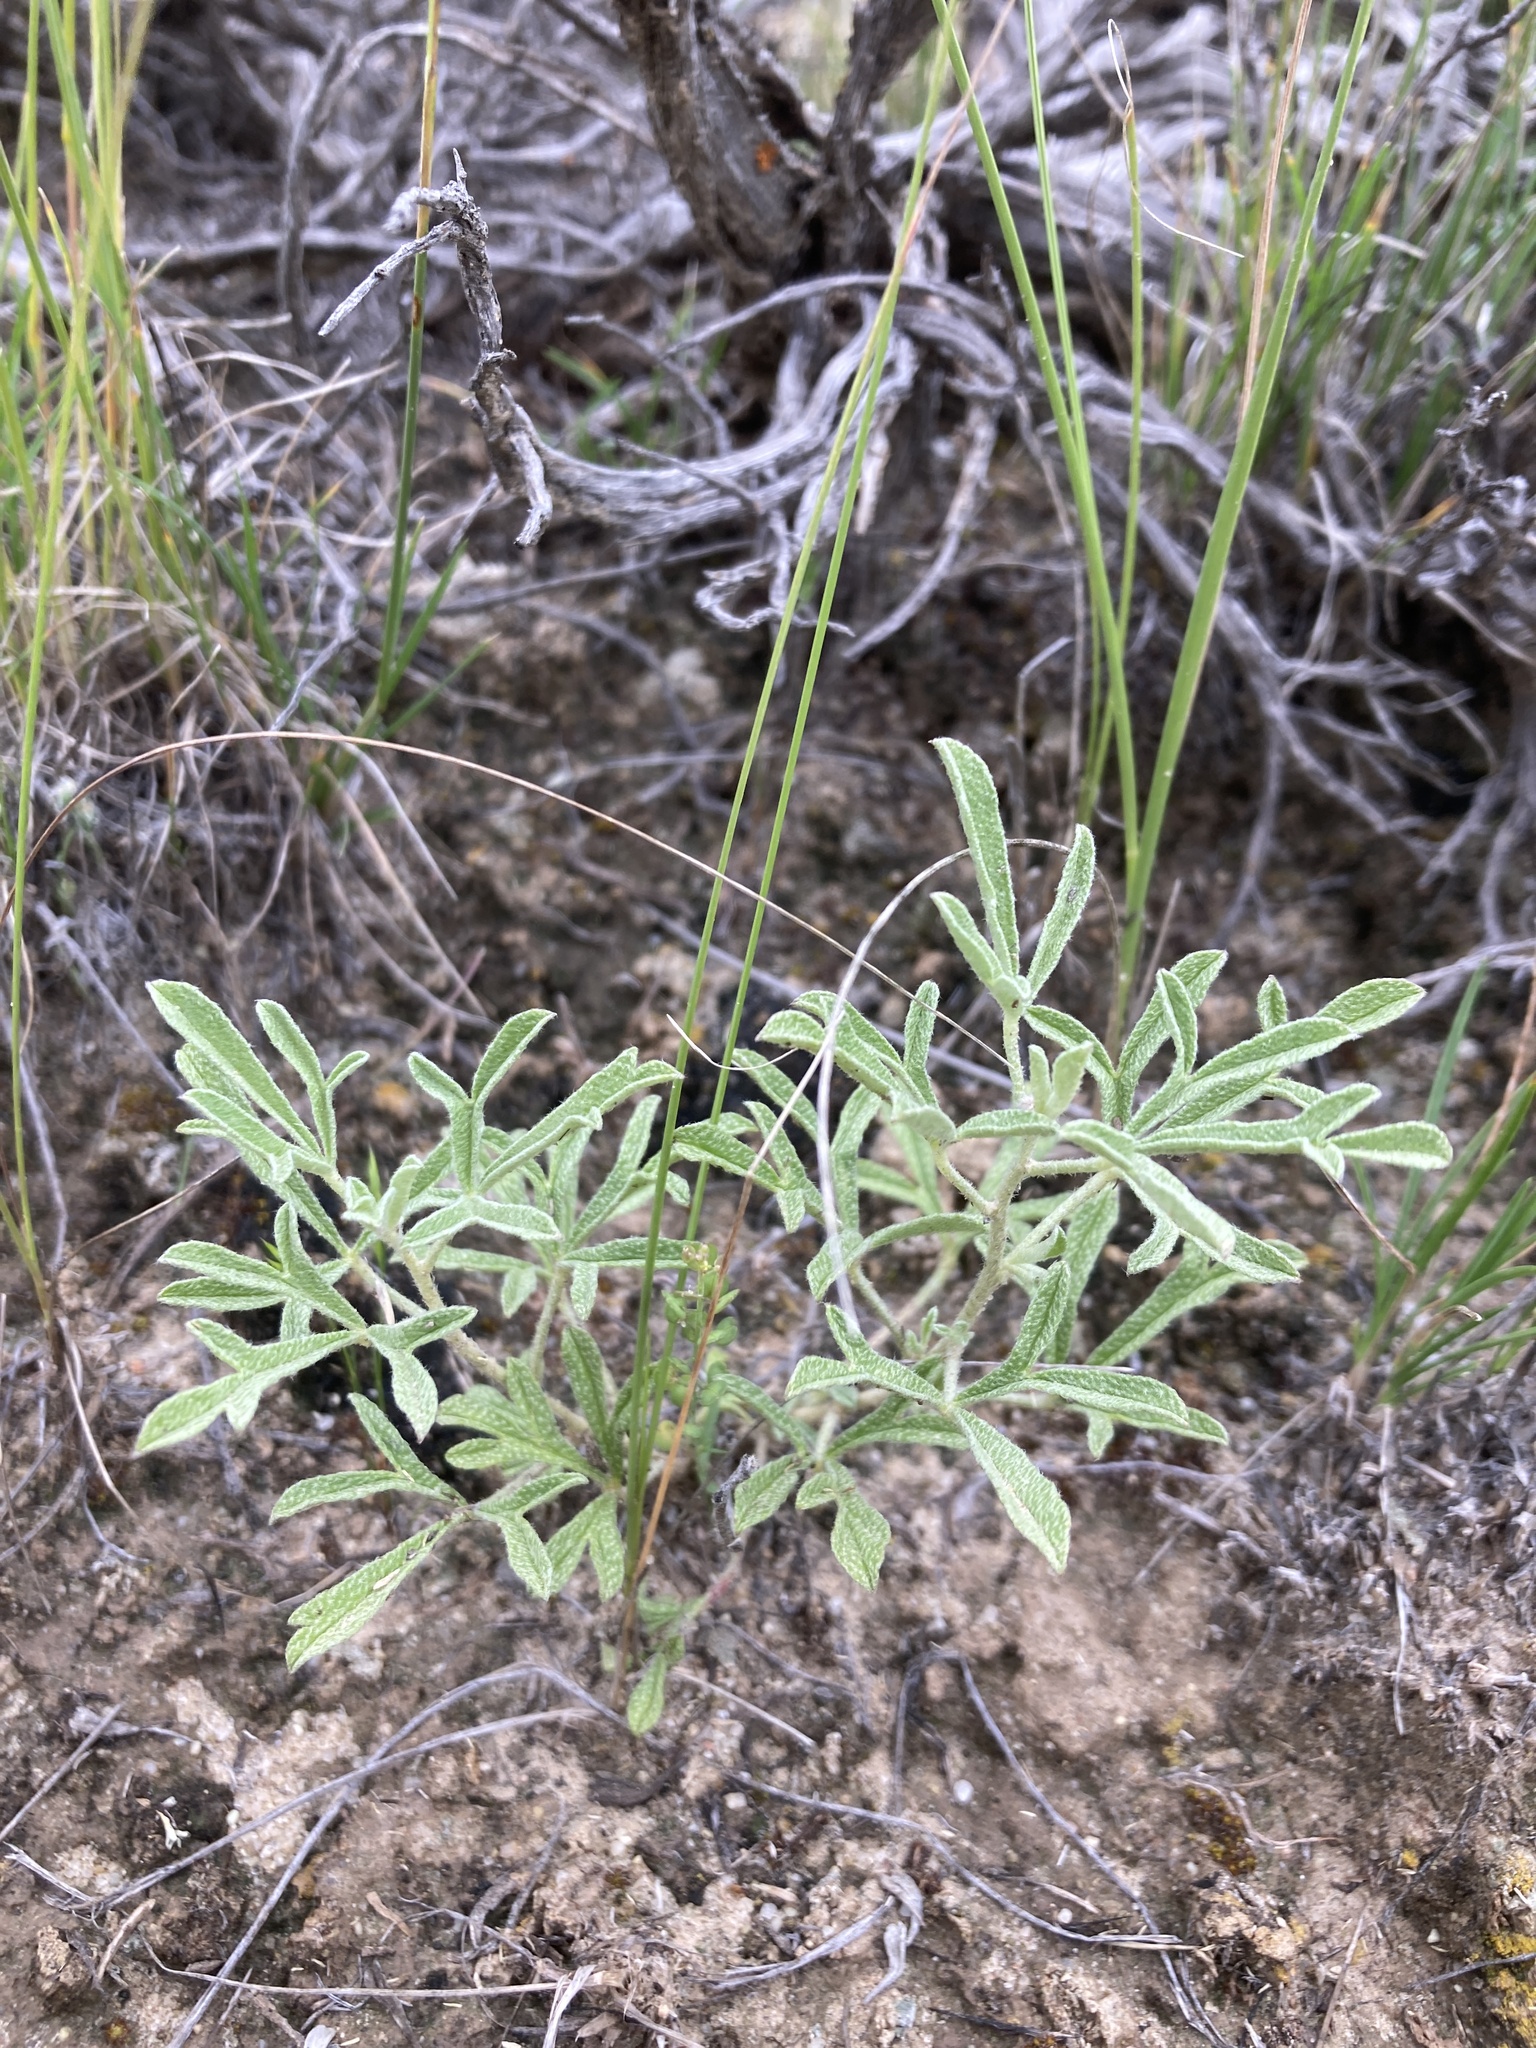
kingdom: Plantae
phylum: Tracheophyta
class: Magnoliopsida
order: Malvales
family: Malvaceae
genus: Sphaeralcea
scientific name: Sphaeralcea coccinea
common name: Moss-rose
